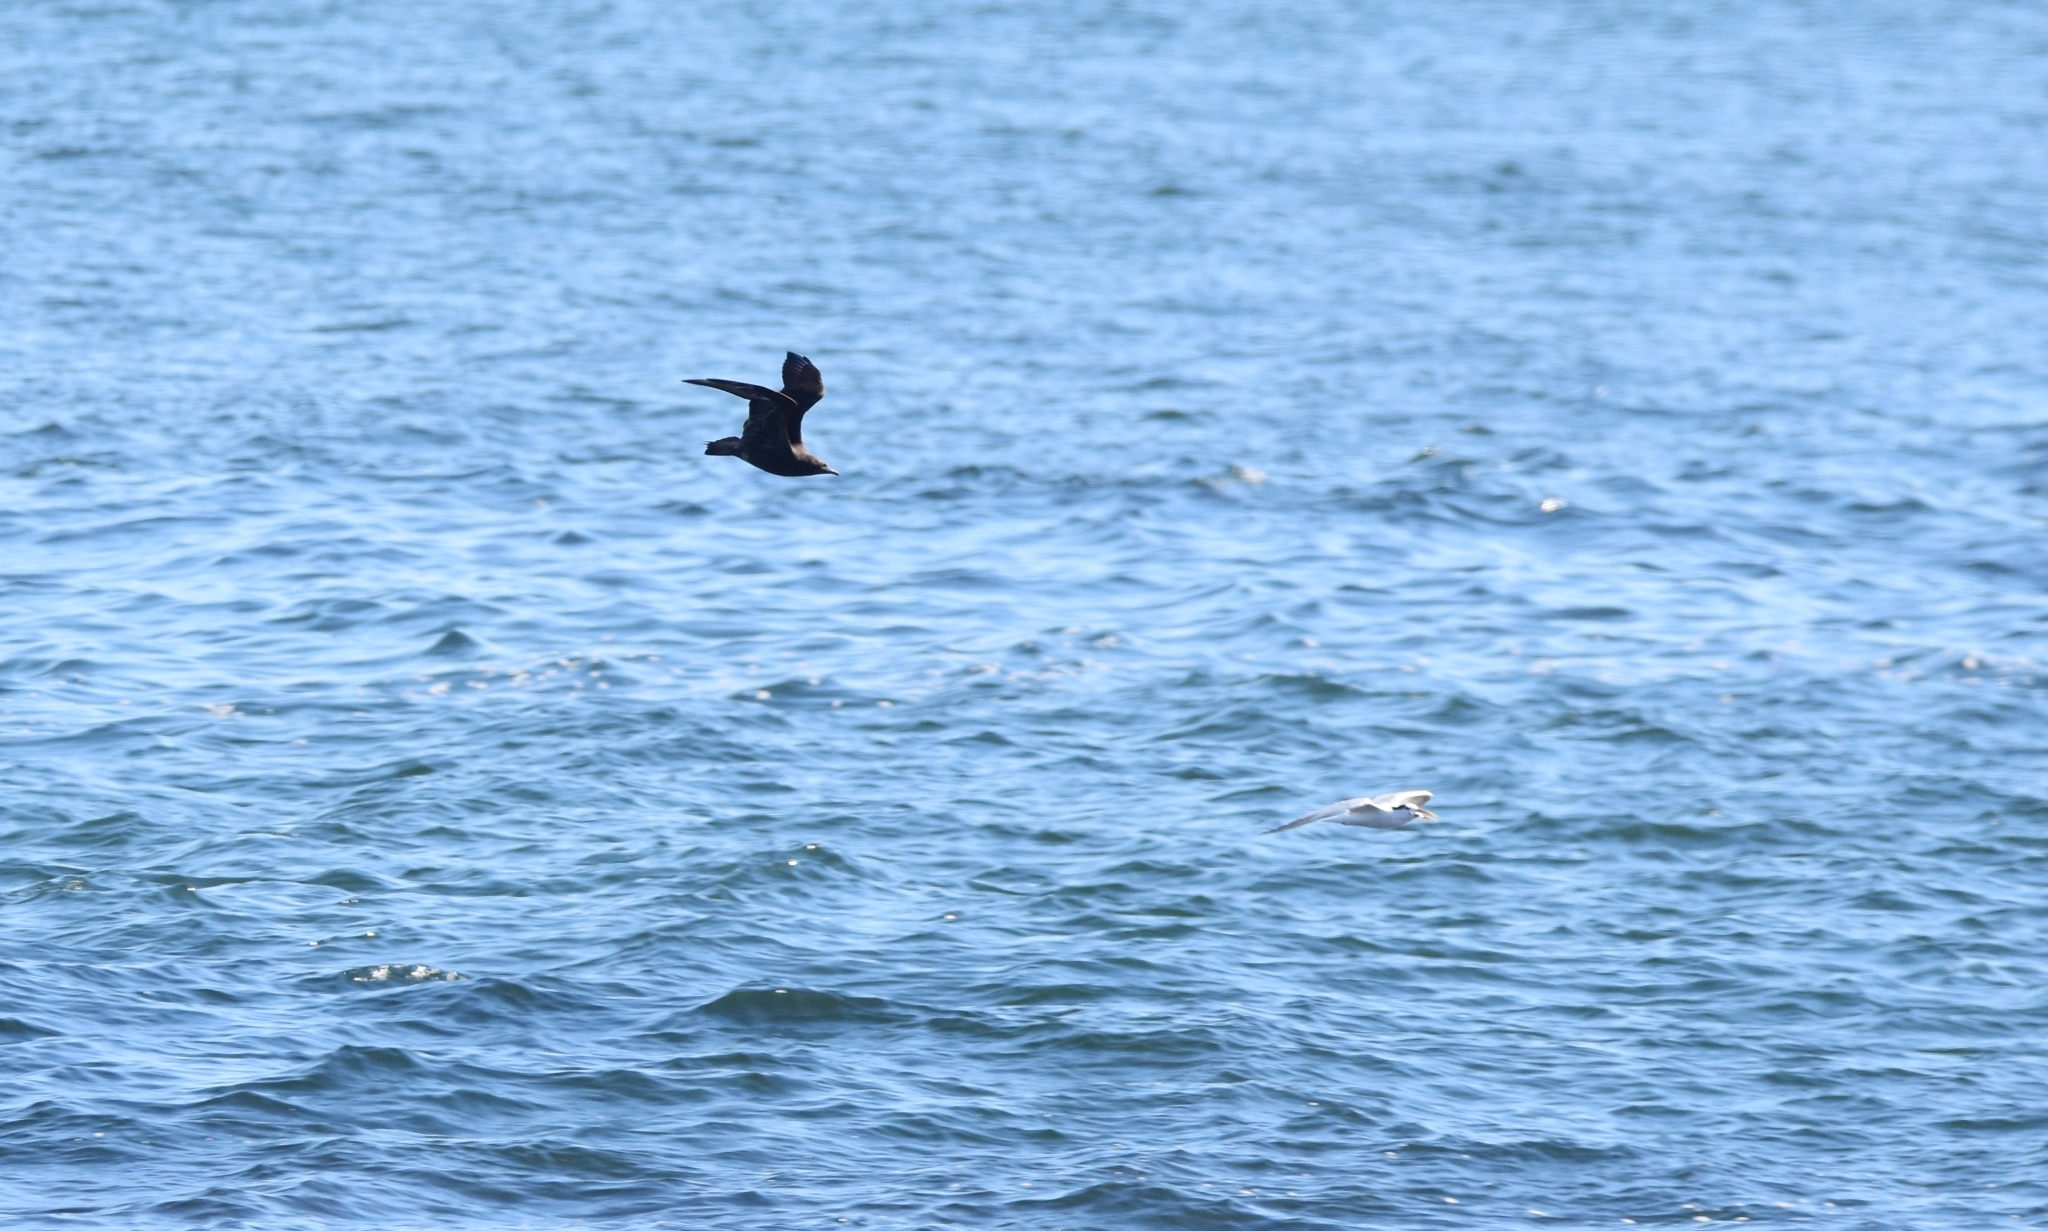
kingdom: Animalia
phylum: Chordata
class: Aves
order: Charadriiformes
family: Stercorariidae
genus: Stercorarius
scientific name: Stercorarius parasiticus
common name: Parasitic jaeger
